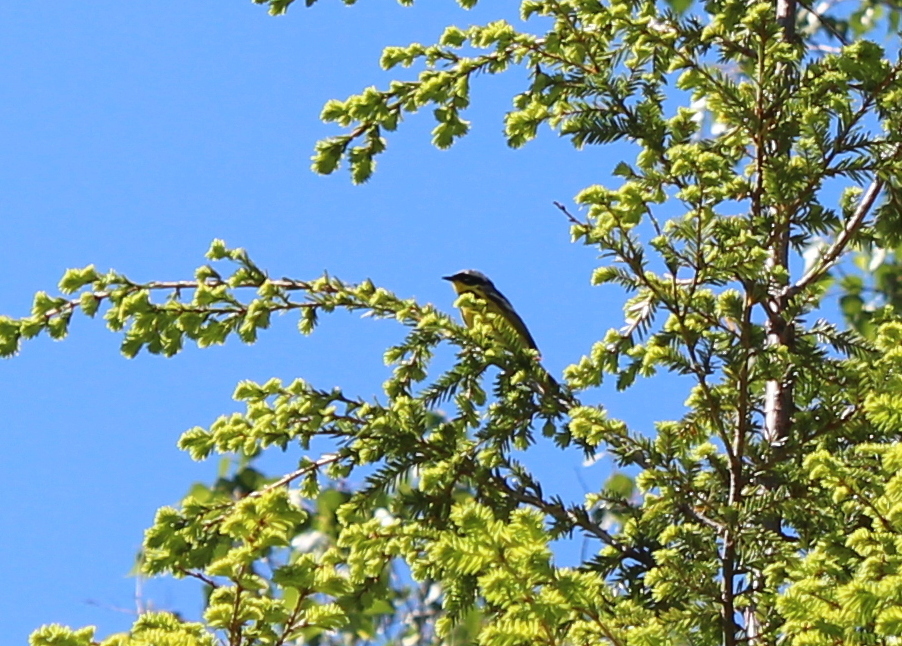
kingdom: Animalia
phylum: Chordata
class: Aves
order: Passeriformes
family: Parulidae
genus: Setophaga
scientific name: Setophaga magnolia
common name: Magnolia warbler
